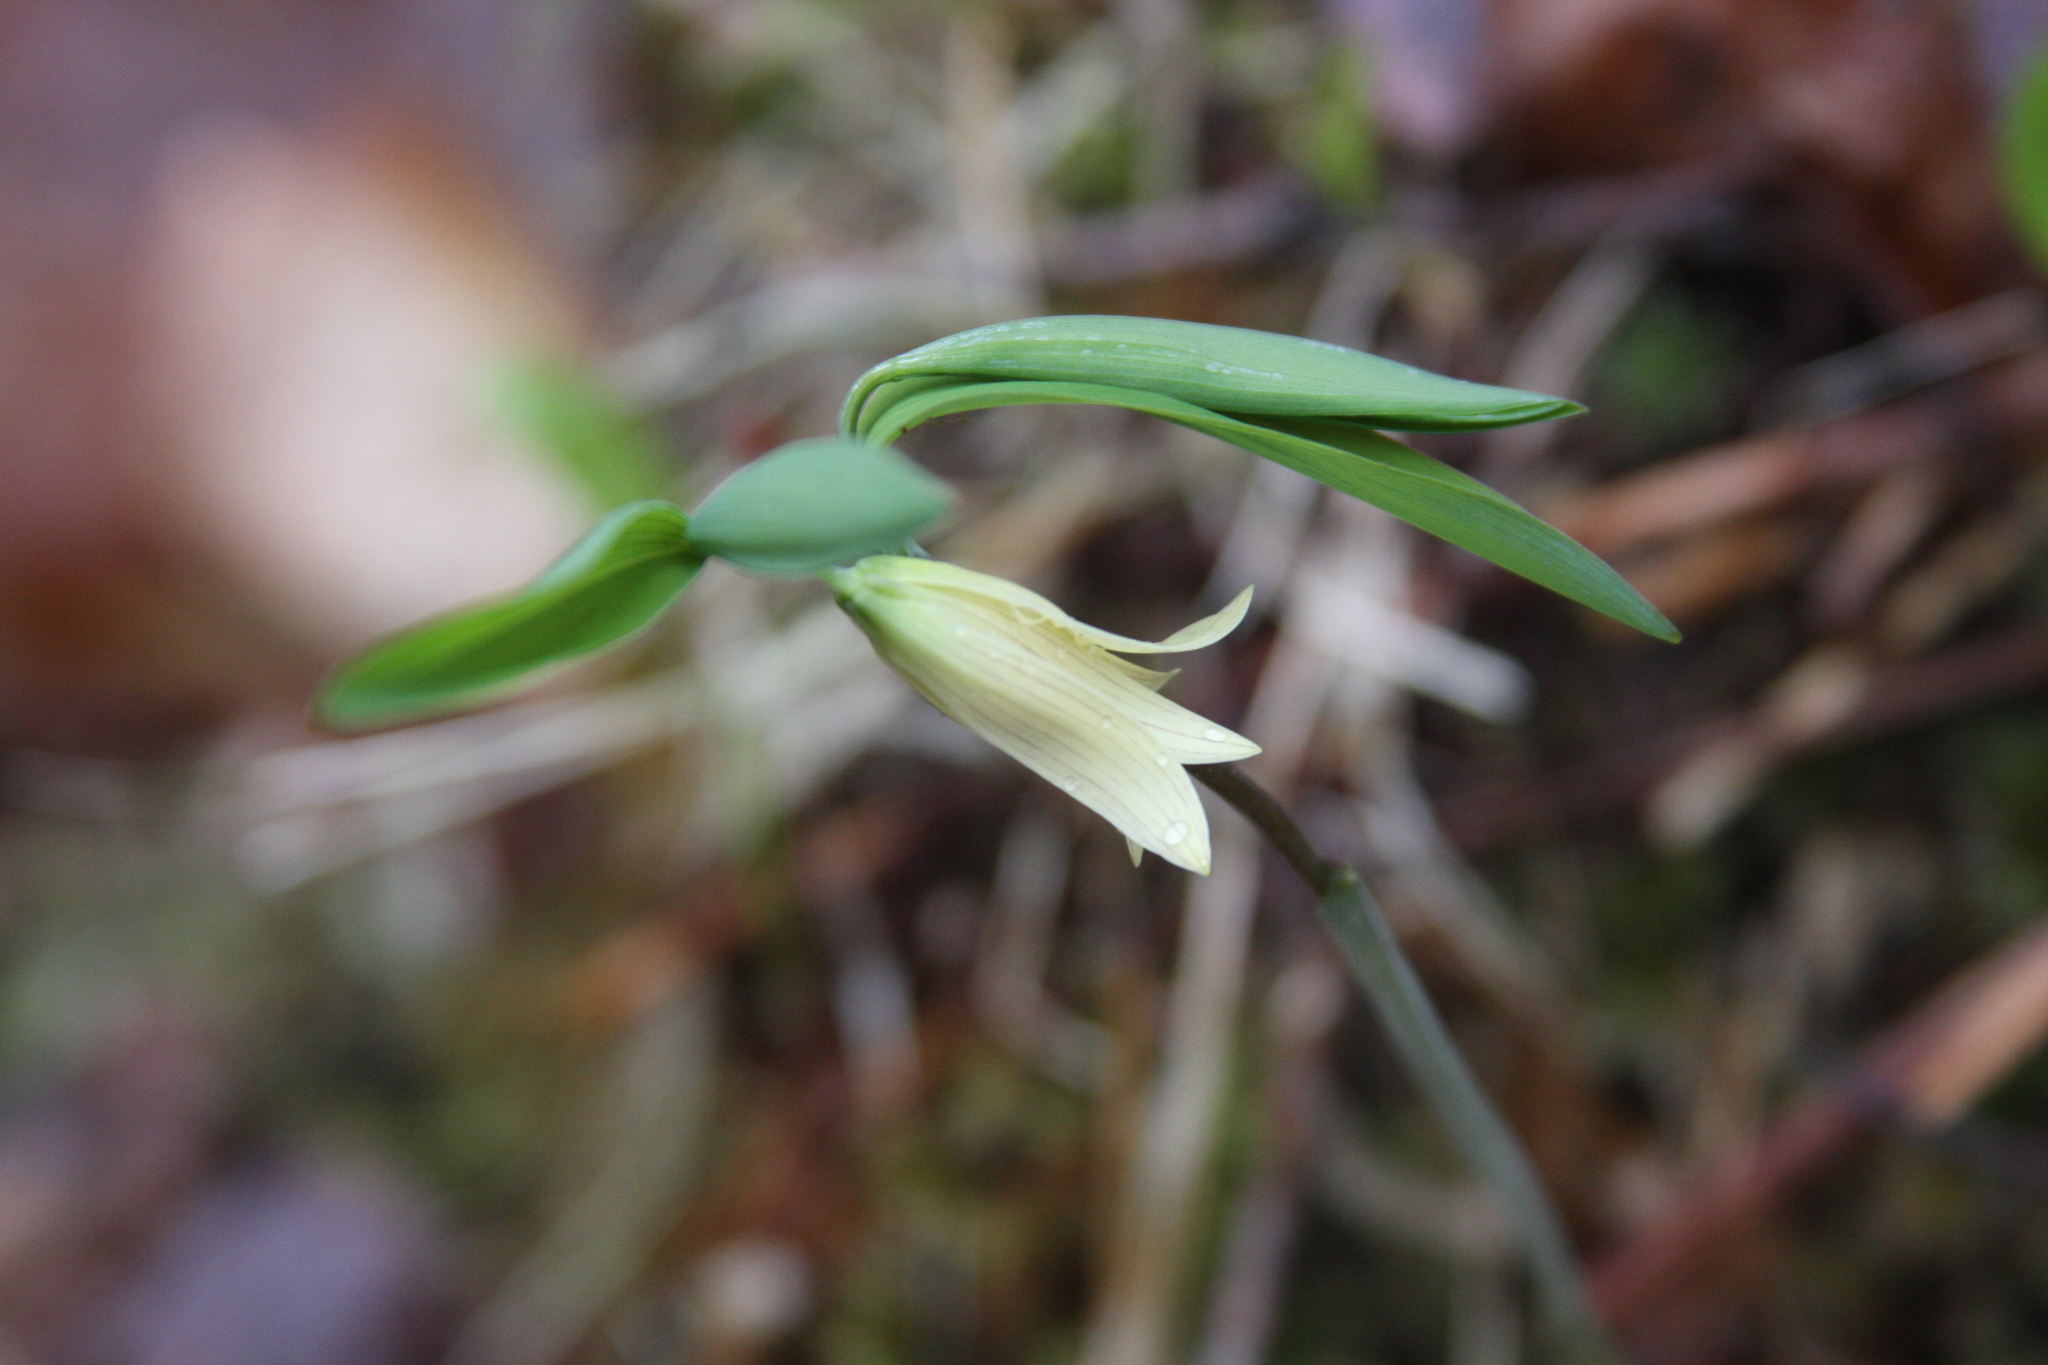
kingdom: Plantae
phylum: Tracheophyta
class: Liliopsida
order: Liliales
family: Colchicaceae
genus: Uvularia
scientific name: Uvularia sessilifolia
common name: Straw-lily
